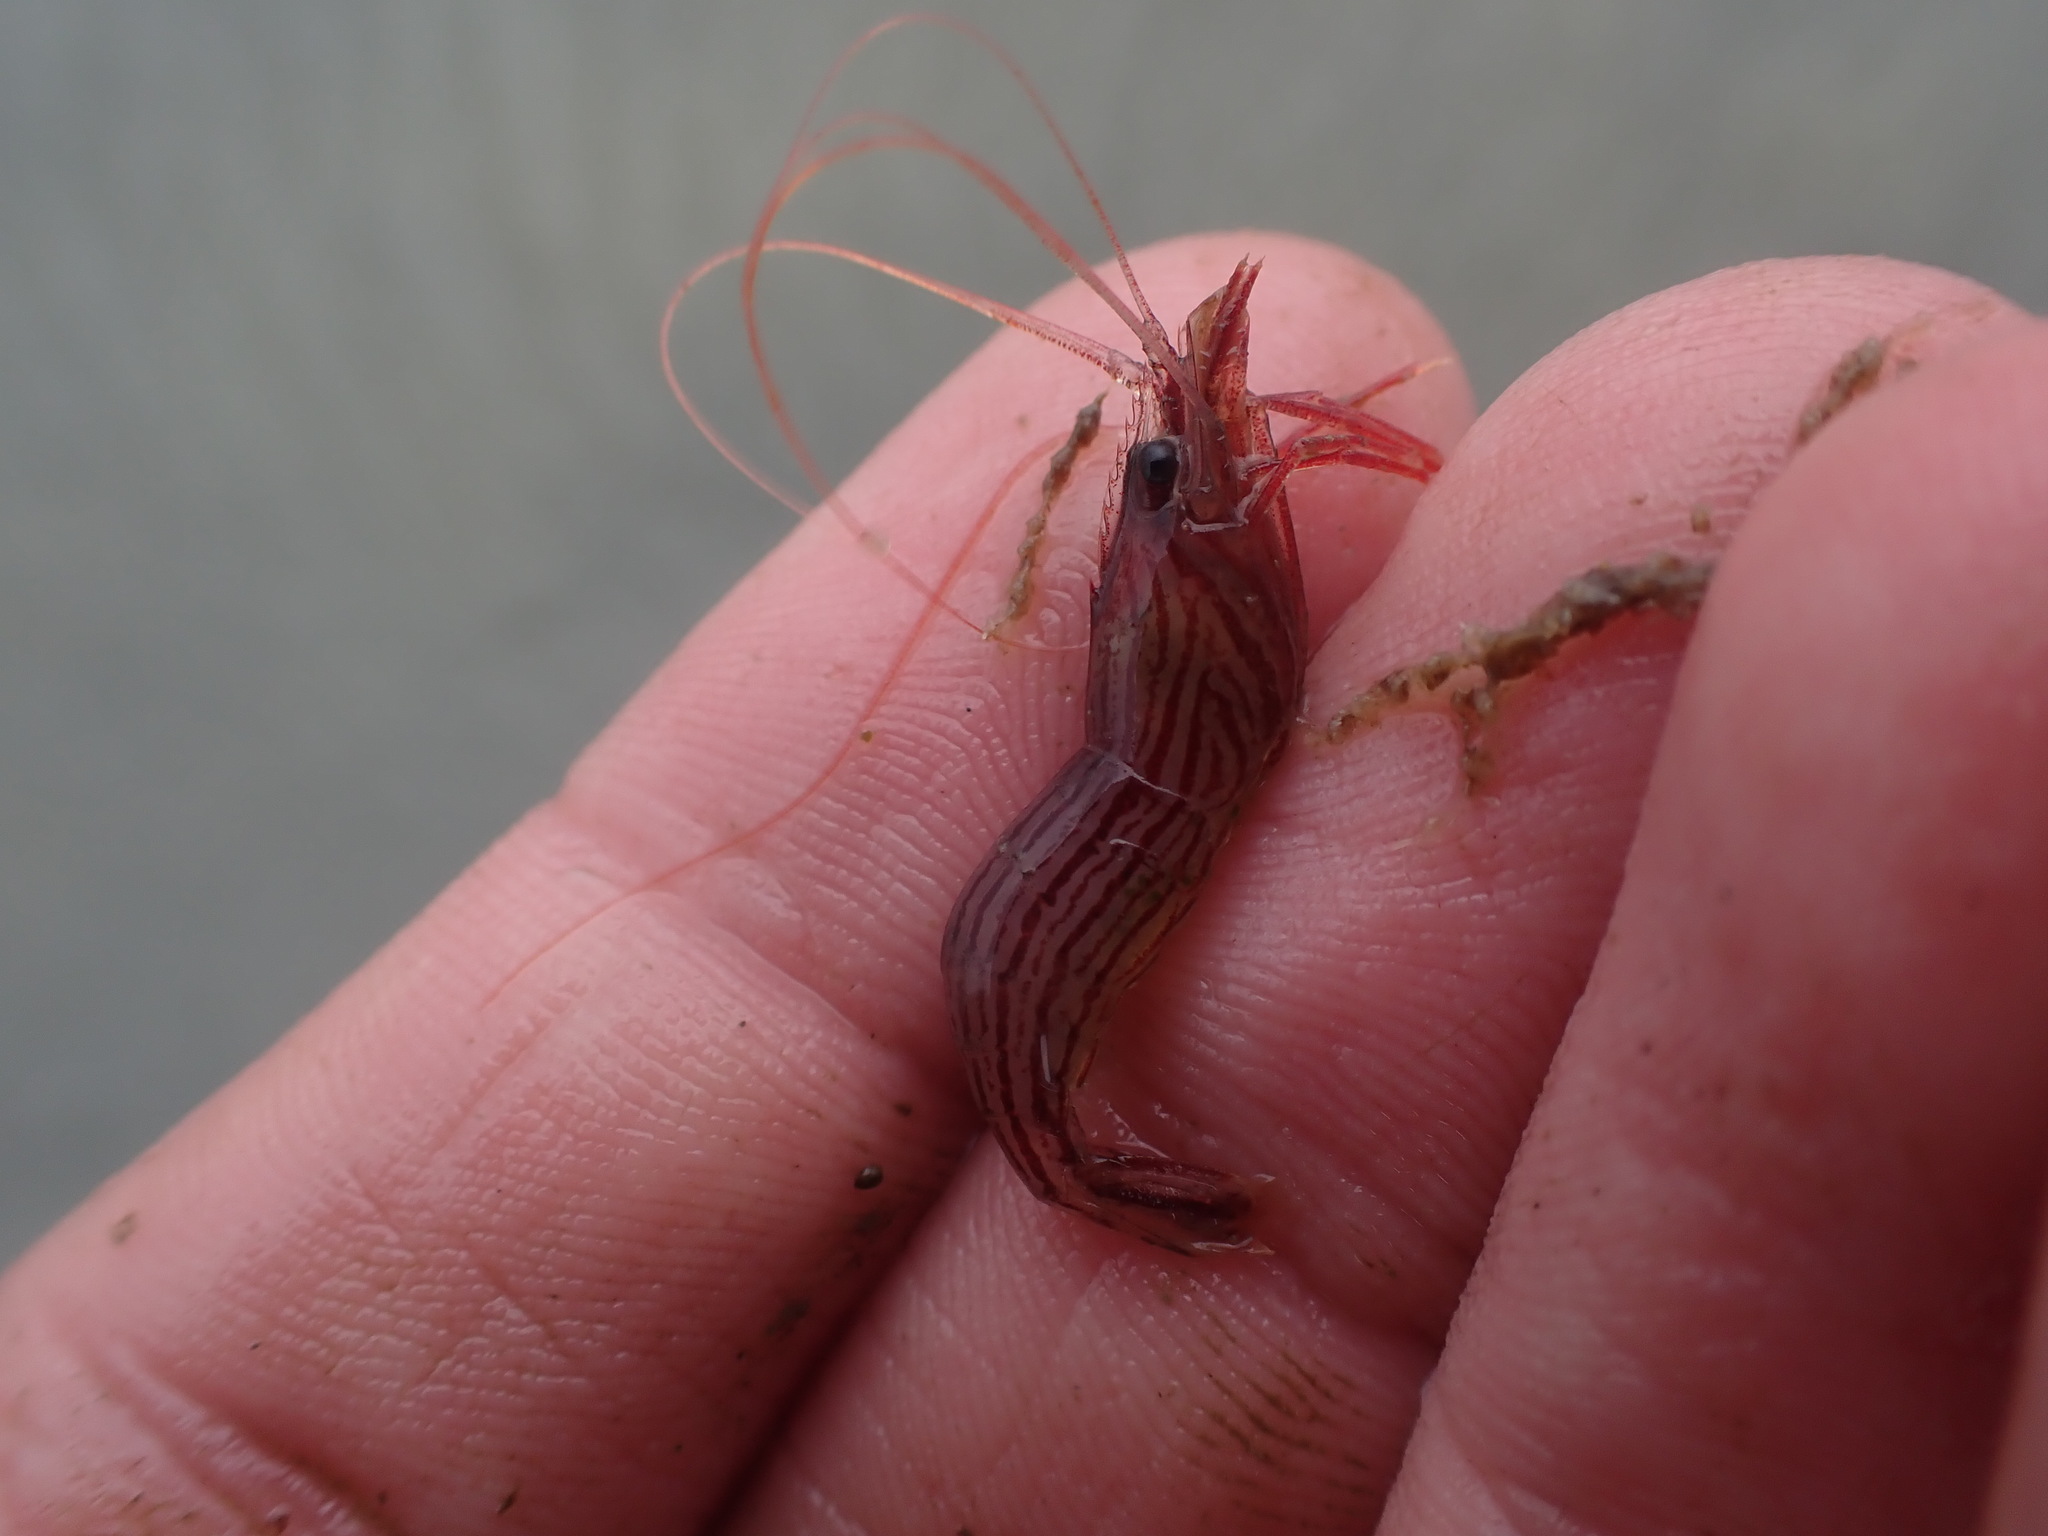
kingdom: Animalia
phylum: Arthropoda
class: Malacostraca
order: Decapoda
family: Lysmatidae
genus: Lysmata
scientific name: Lysmata vittata
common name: Indian lined shrimp
